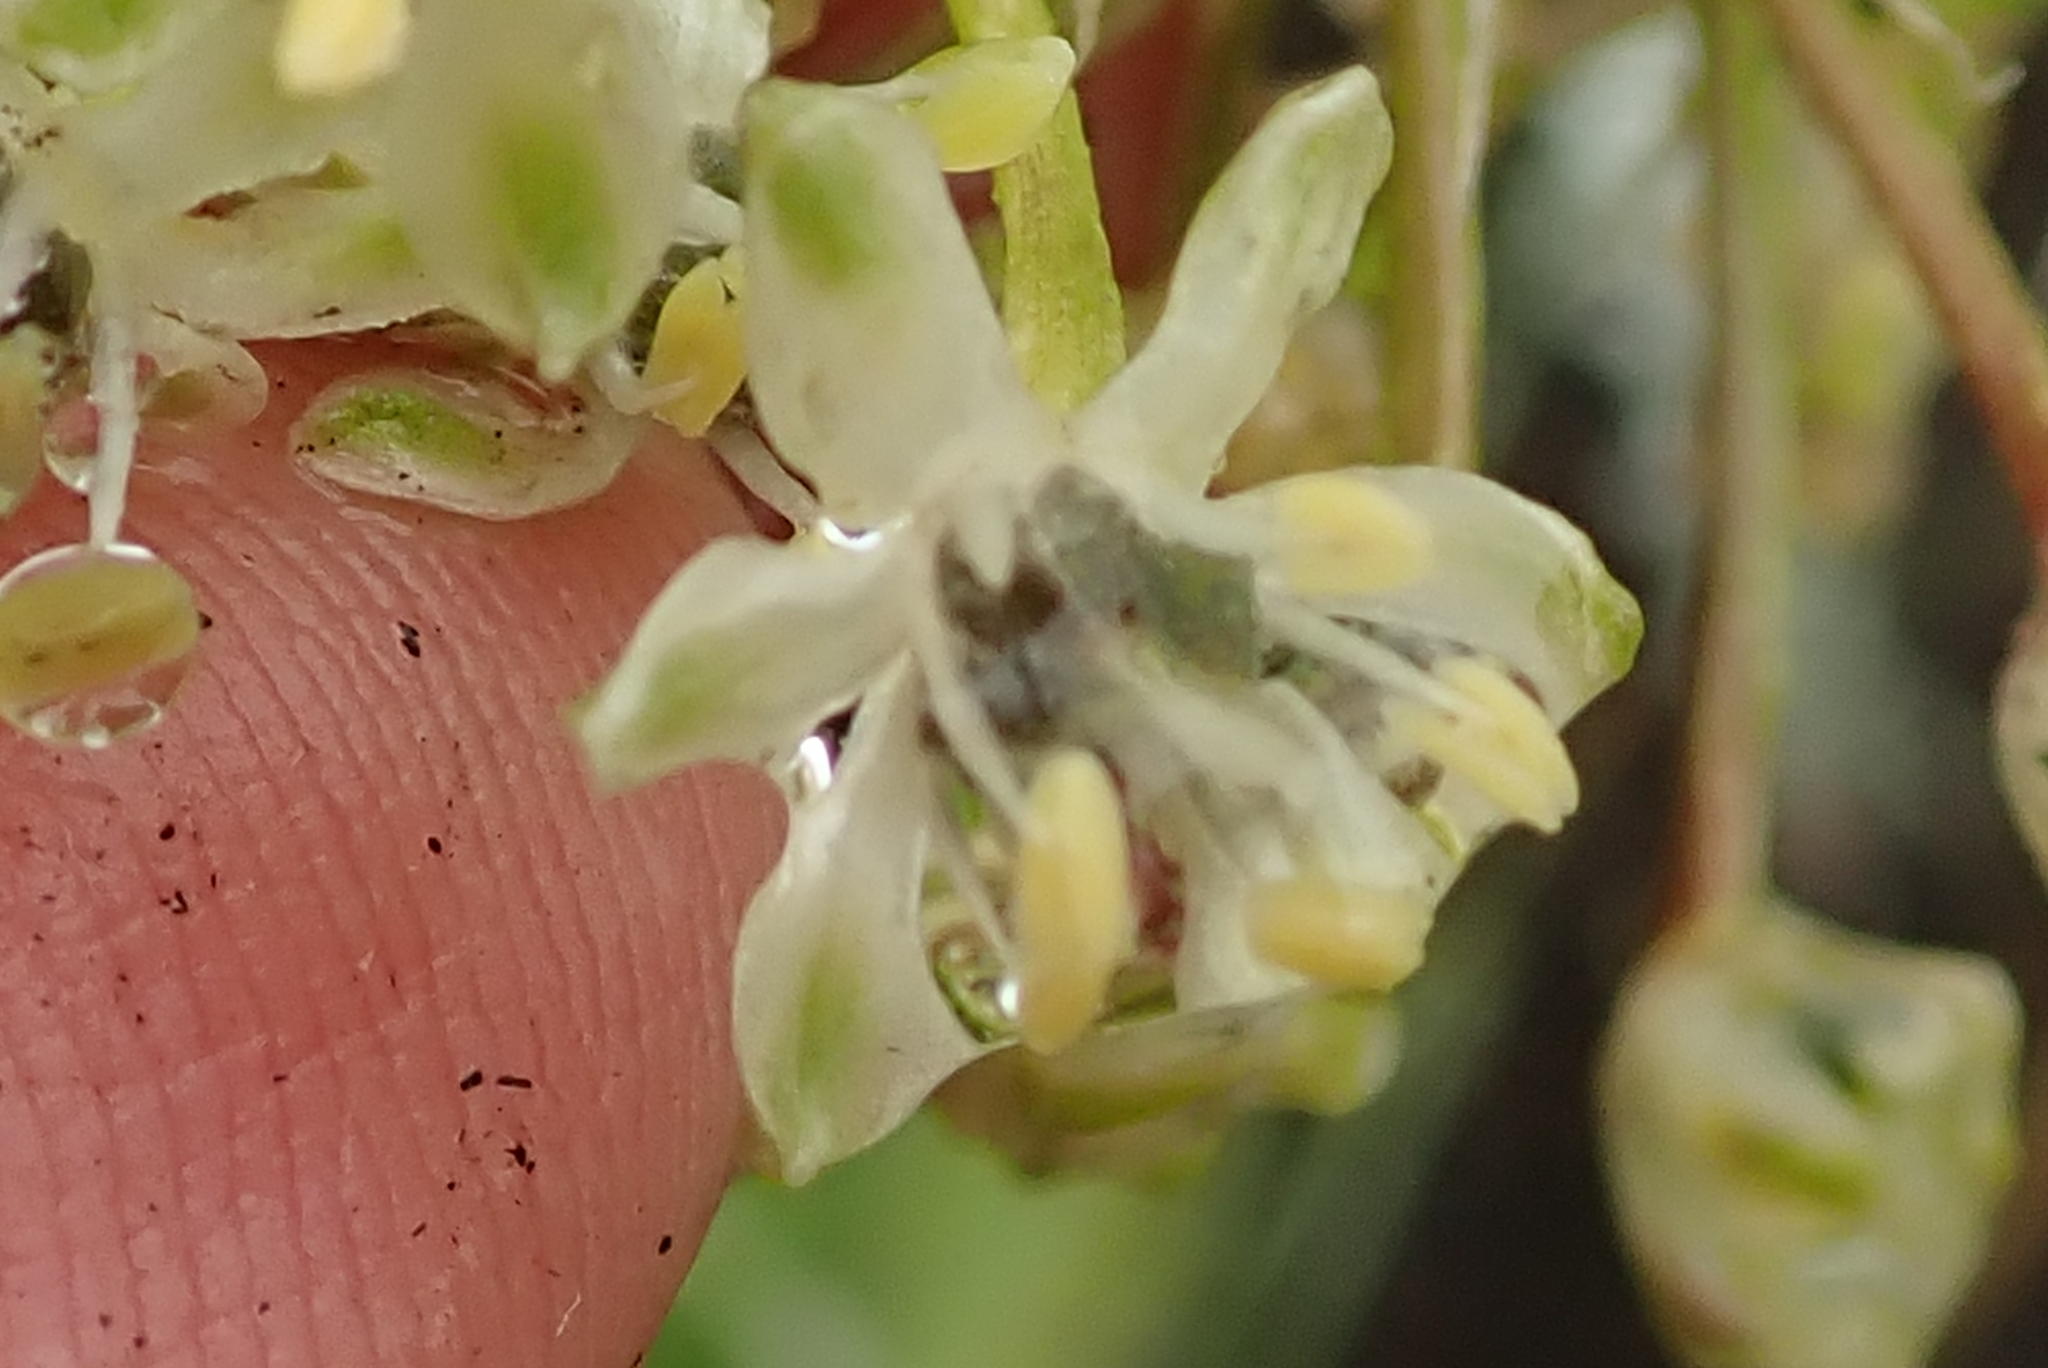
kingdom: Plantae
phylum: Tracheophyta
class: Liliopsida
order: Asparagales
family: Asparagaceae
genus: Schizocarphus
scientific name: Schizocarphus nervosus
